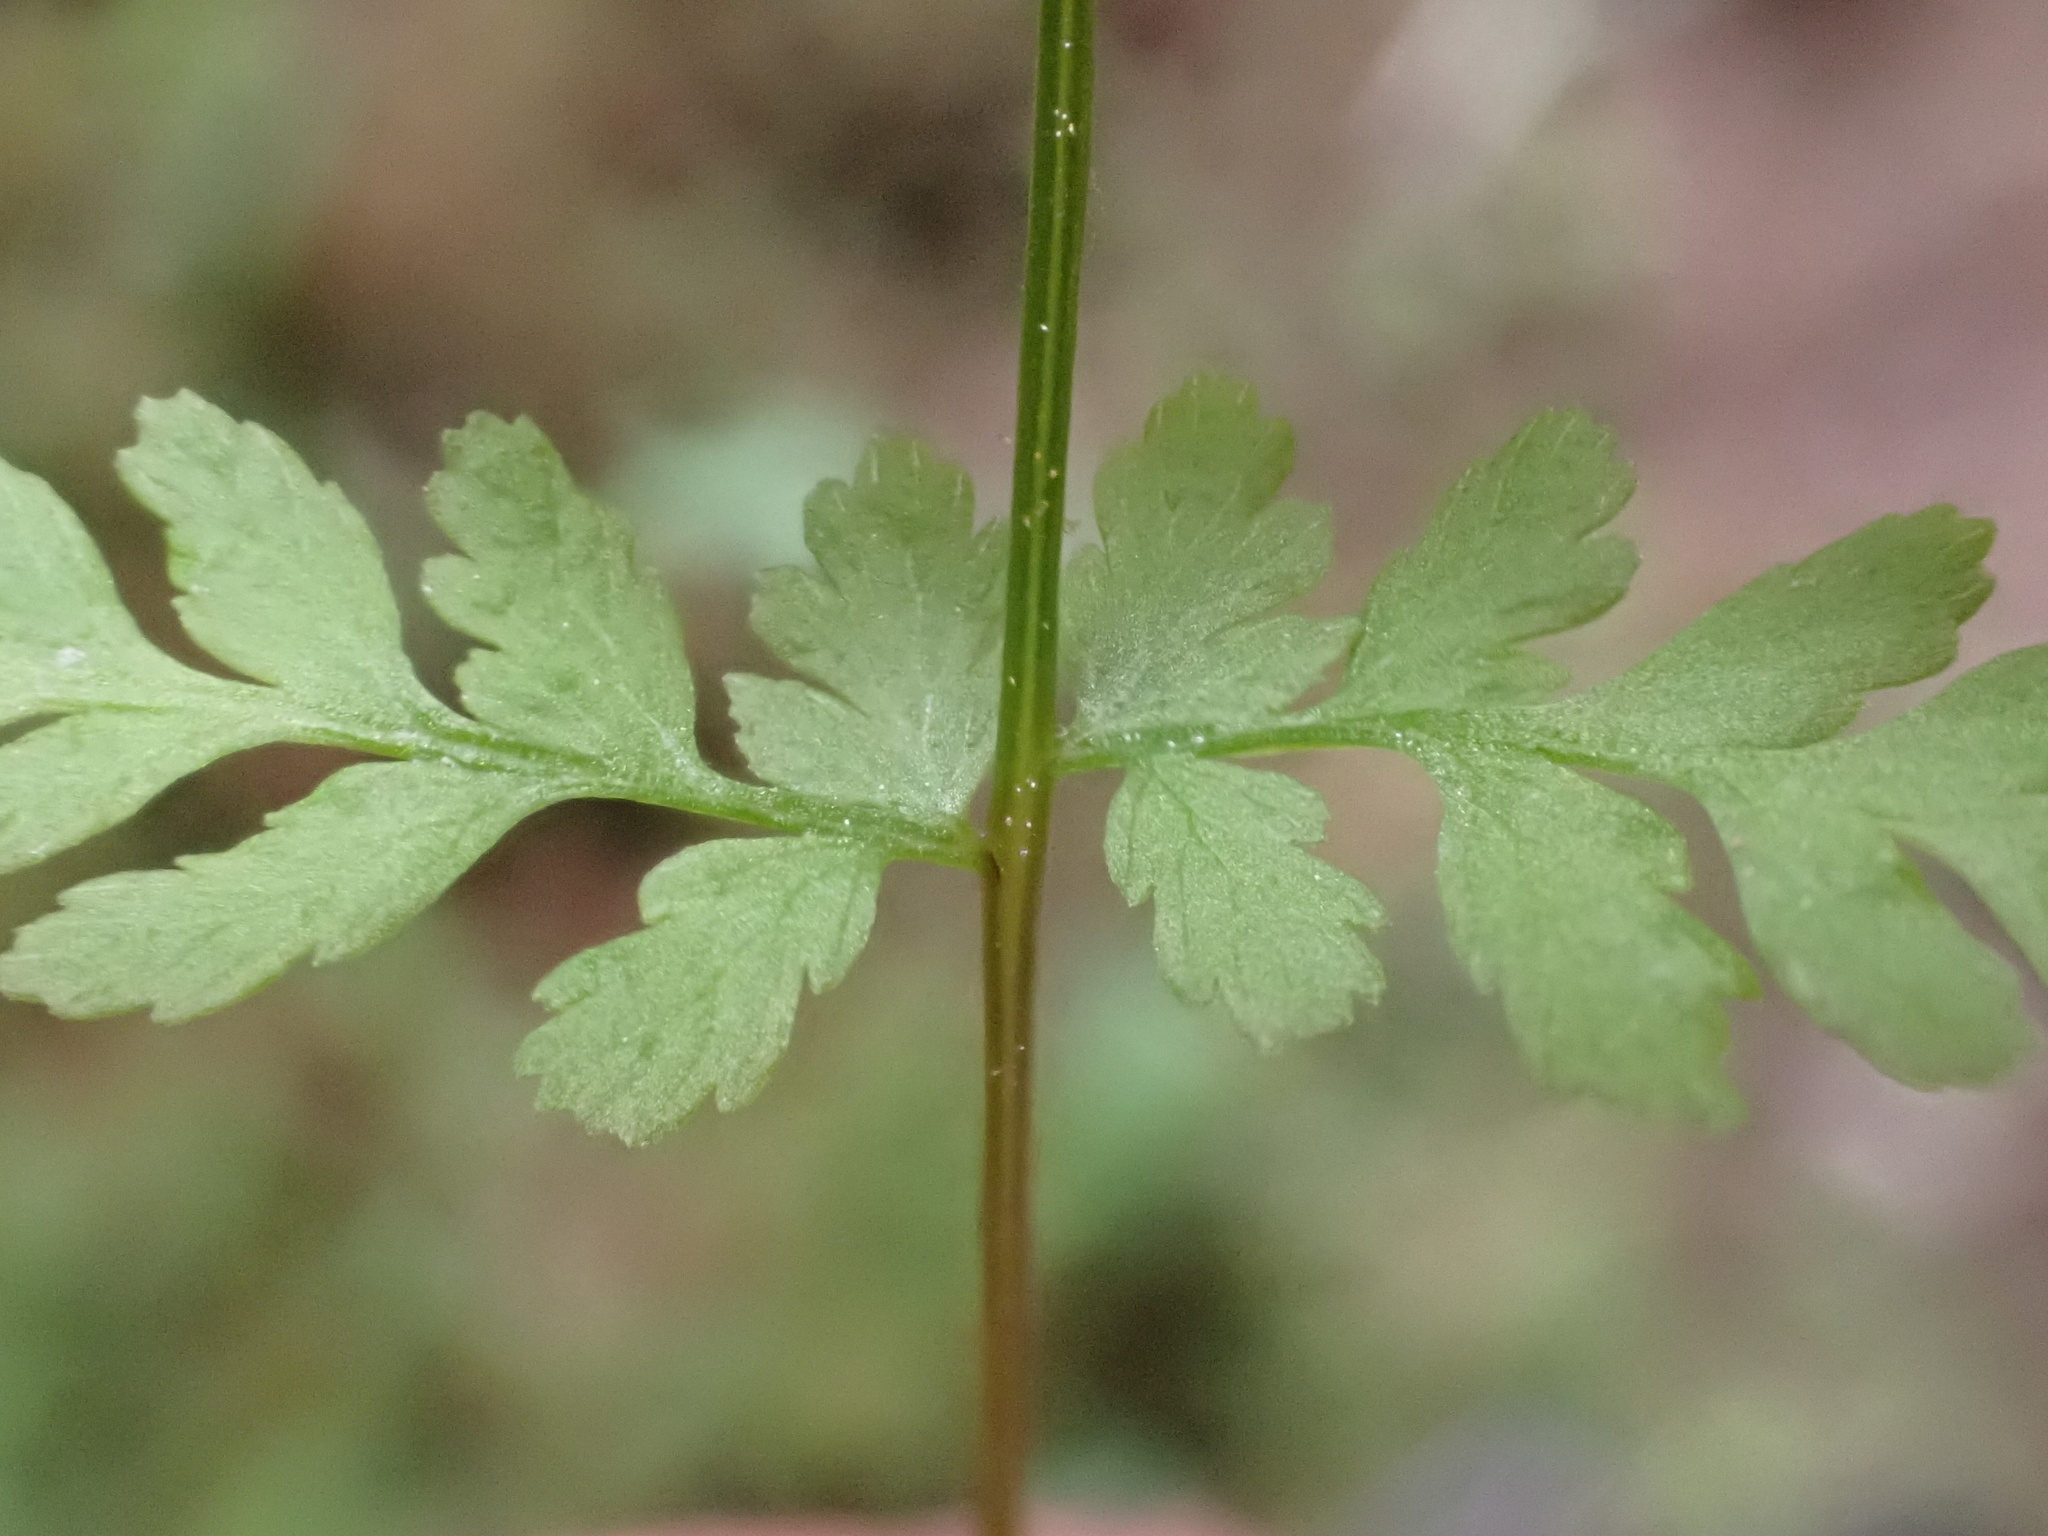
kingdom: Plantae
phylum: Tracheophyta
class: Polypodiopsida
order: Polypodiales
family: Cystopteridaceae
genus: Cystopteris
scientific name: Cystopteris fragilis
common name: Brittle bladder fern
